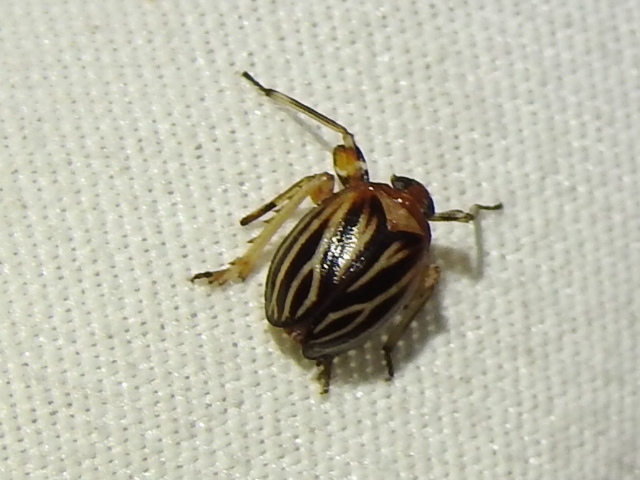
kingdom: Animalia
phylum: Arthropoda
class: Insecta
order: Hemiptera
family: Achilidae
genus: Isodaemon
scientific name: Isodaemon orontes
